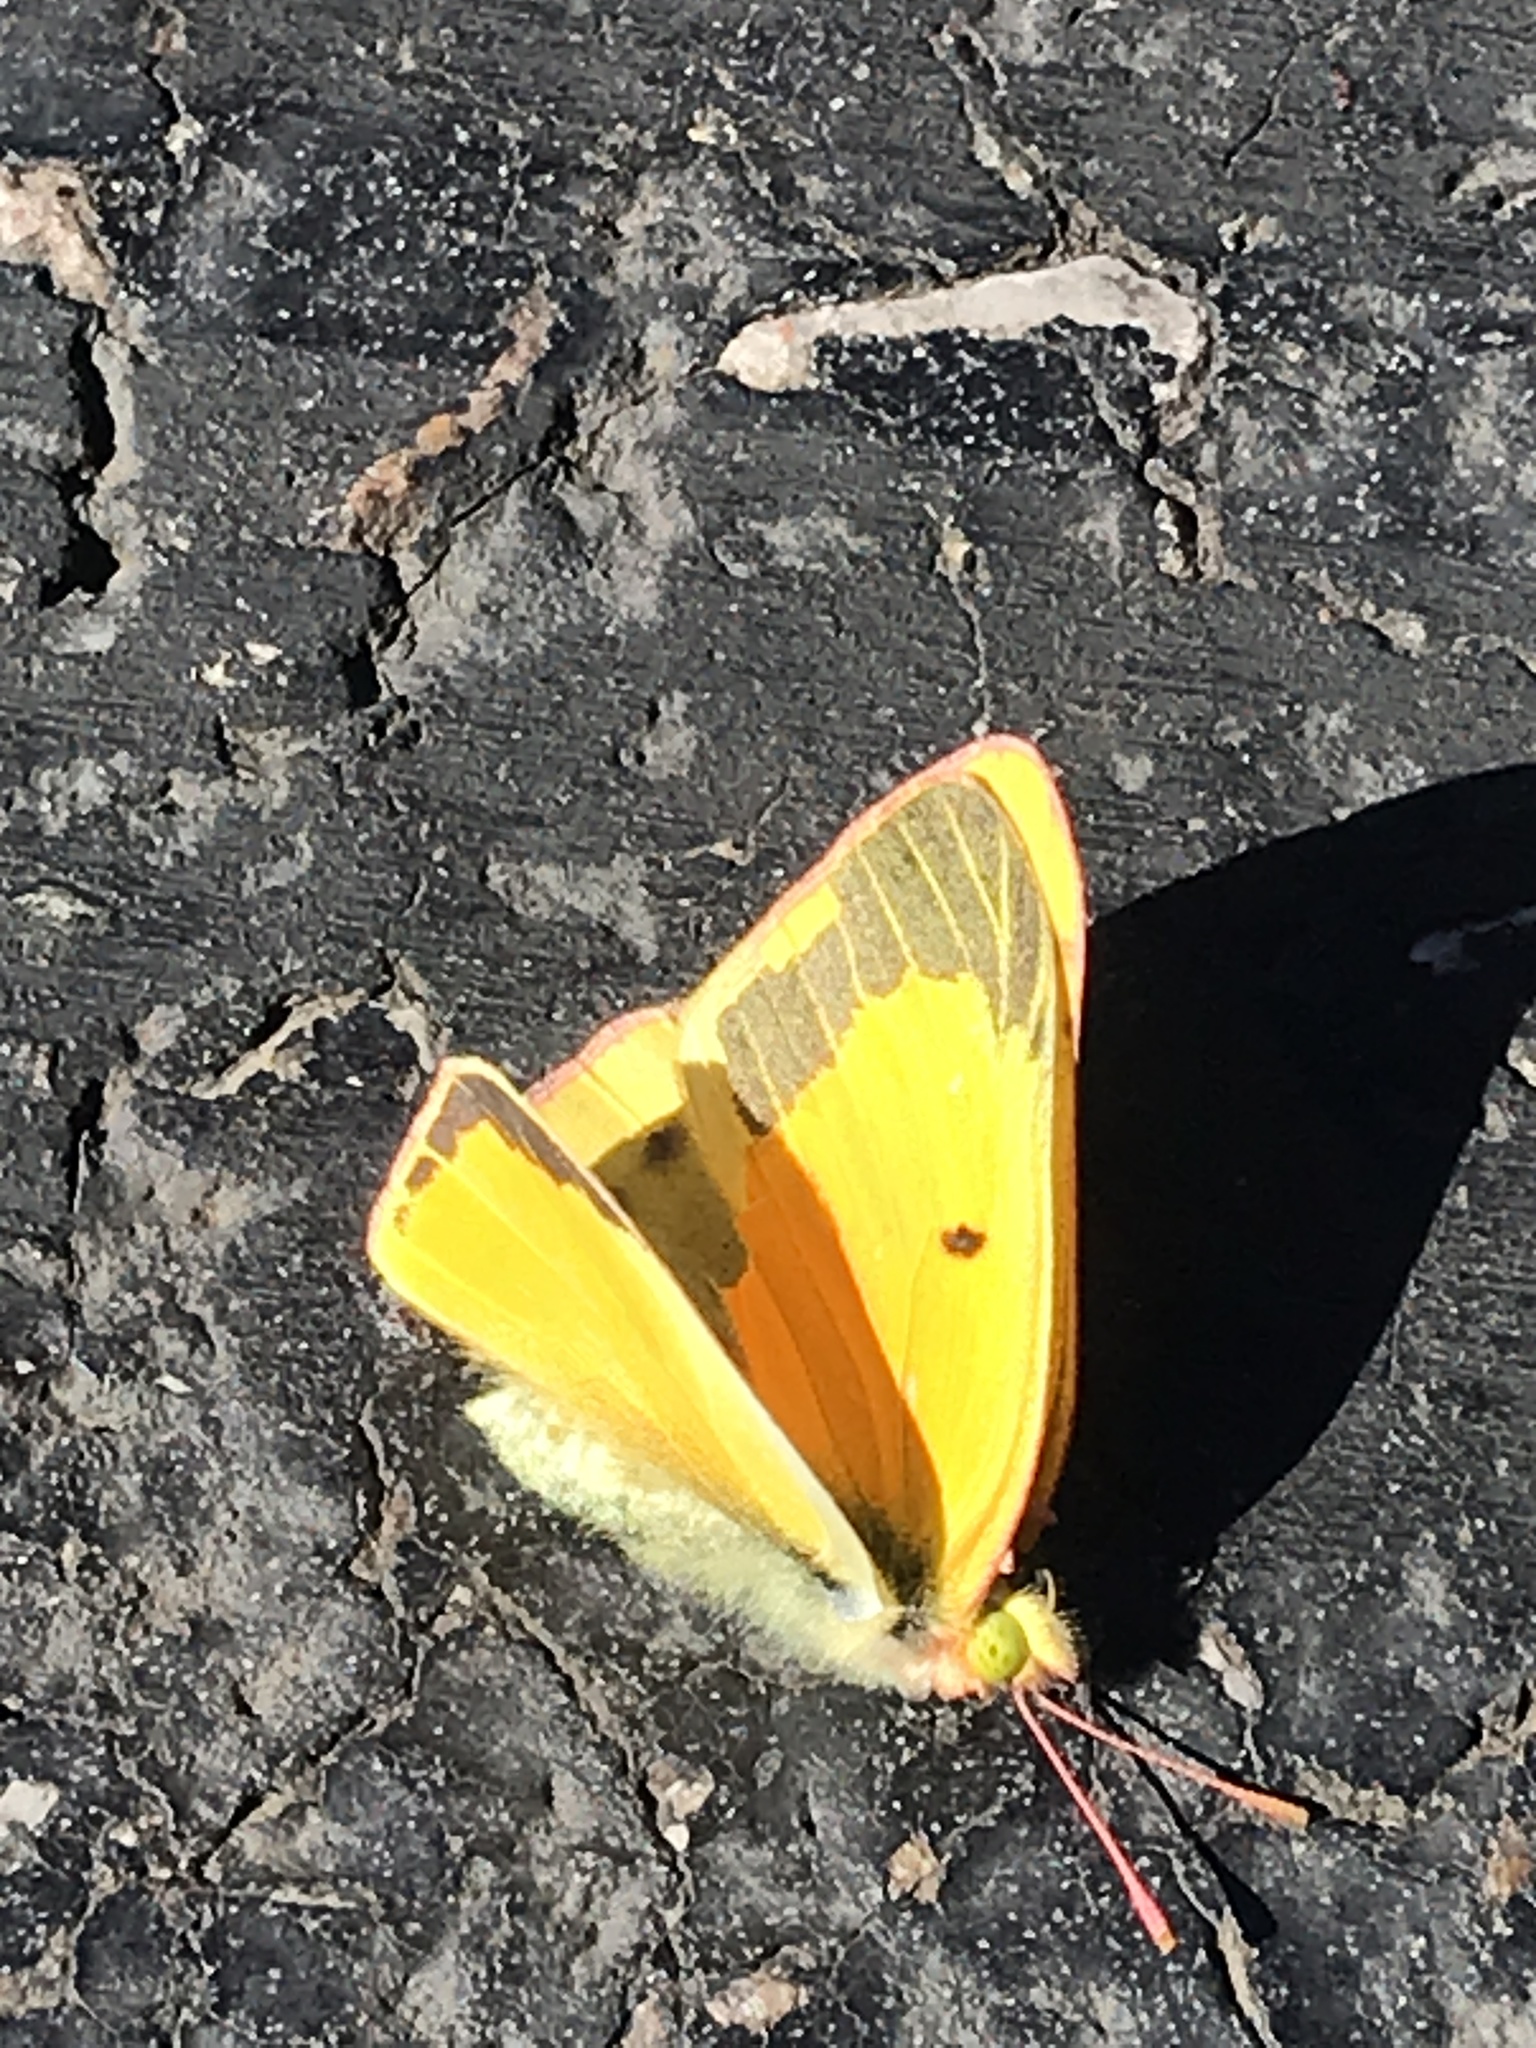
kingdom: Animalia
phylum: Arthropoda
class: Insecta
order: Lepidoptera
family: Pieridae
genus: Colias
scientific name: Colias eurytheme
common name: Alfalfa butterfly
